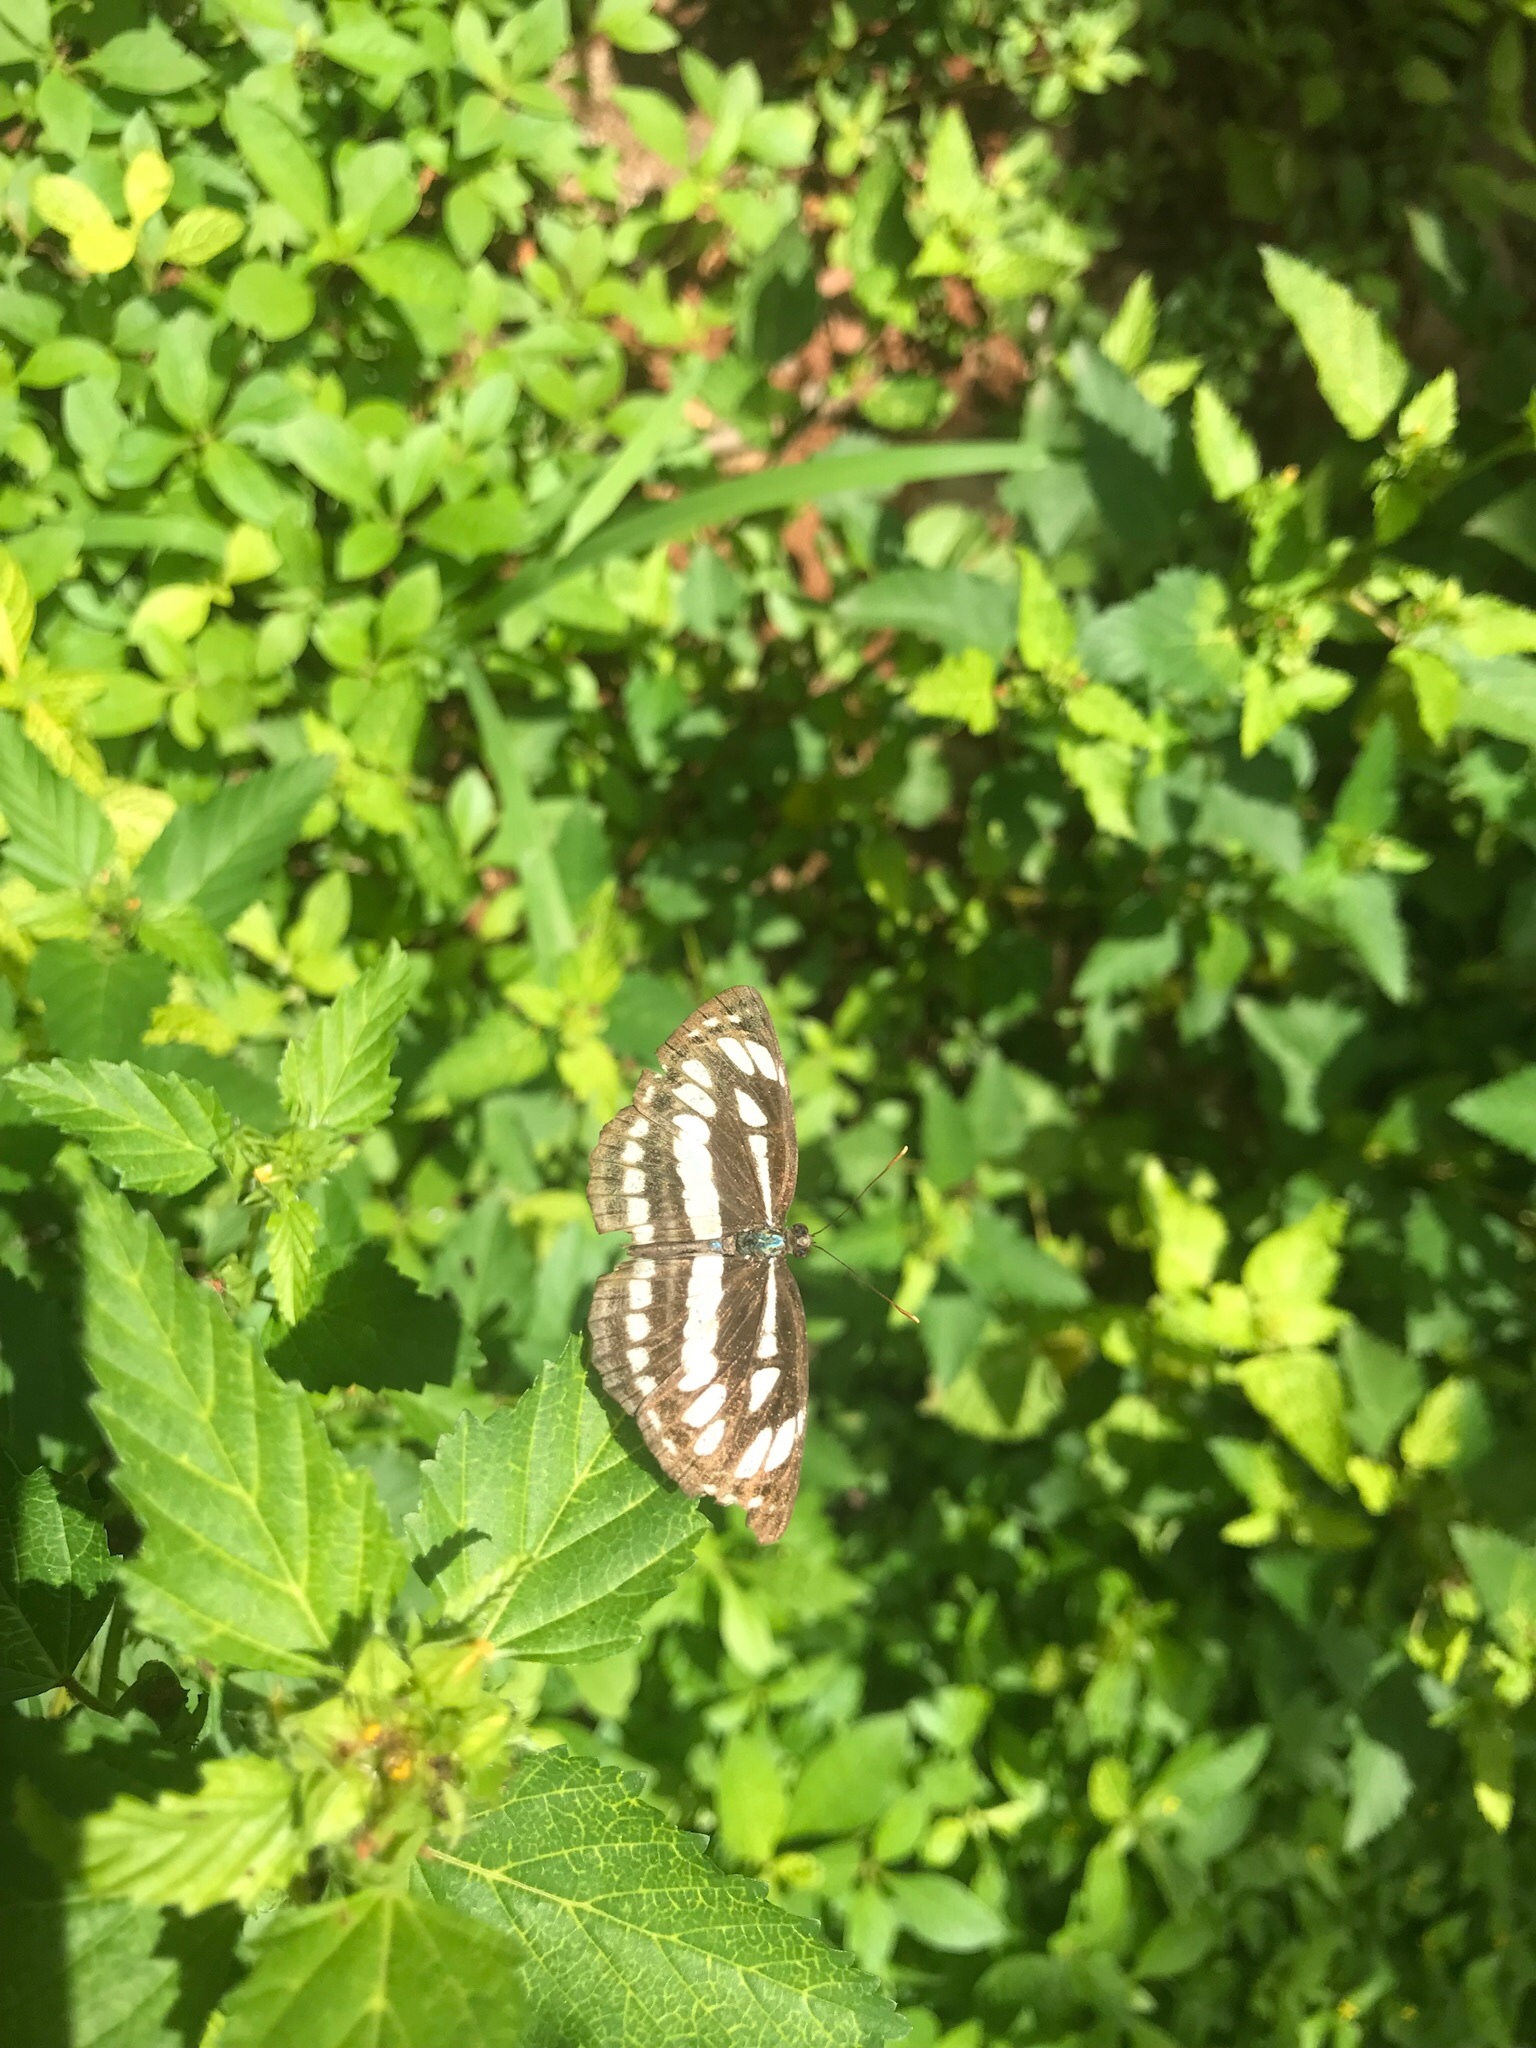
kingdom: Animalia
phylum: Arthropoda
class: Insecta
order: Lepidoptera
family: Nymphalidae
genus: Neptis
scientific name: Neptis hylas
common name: Common sailer
